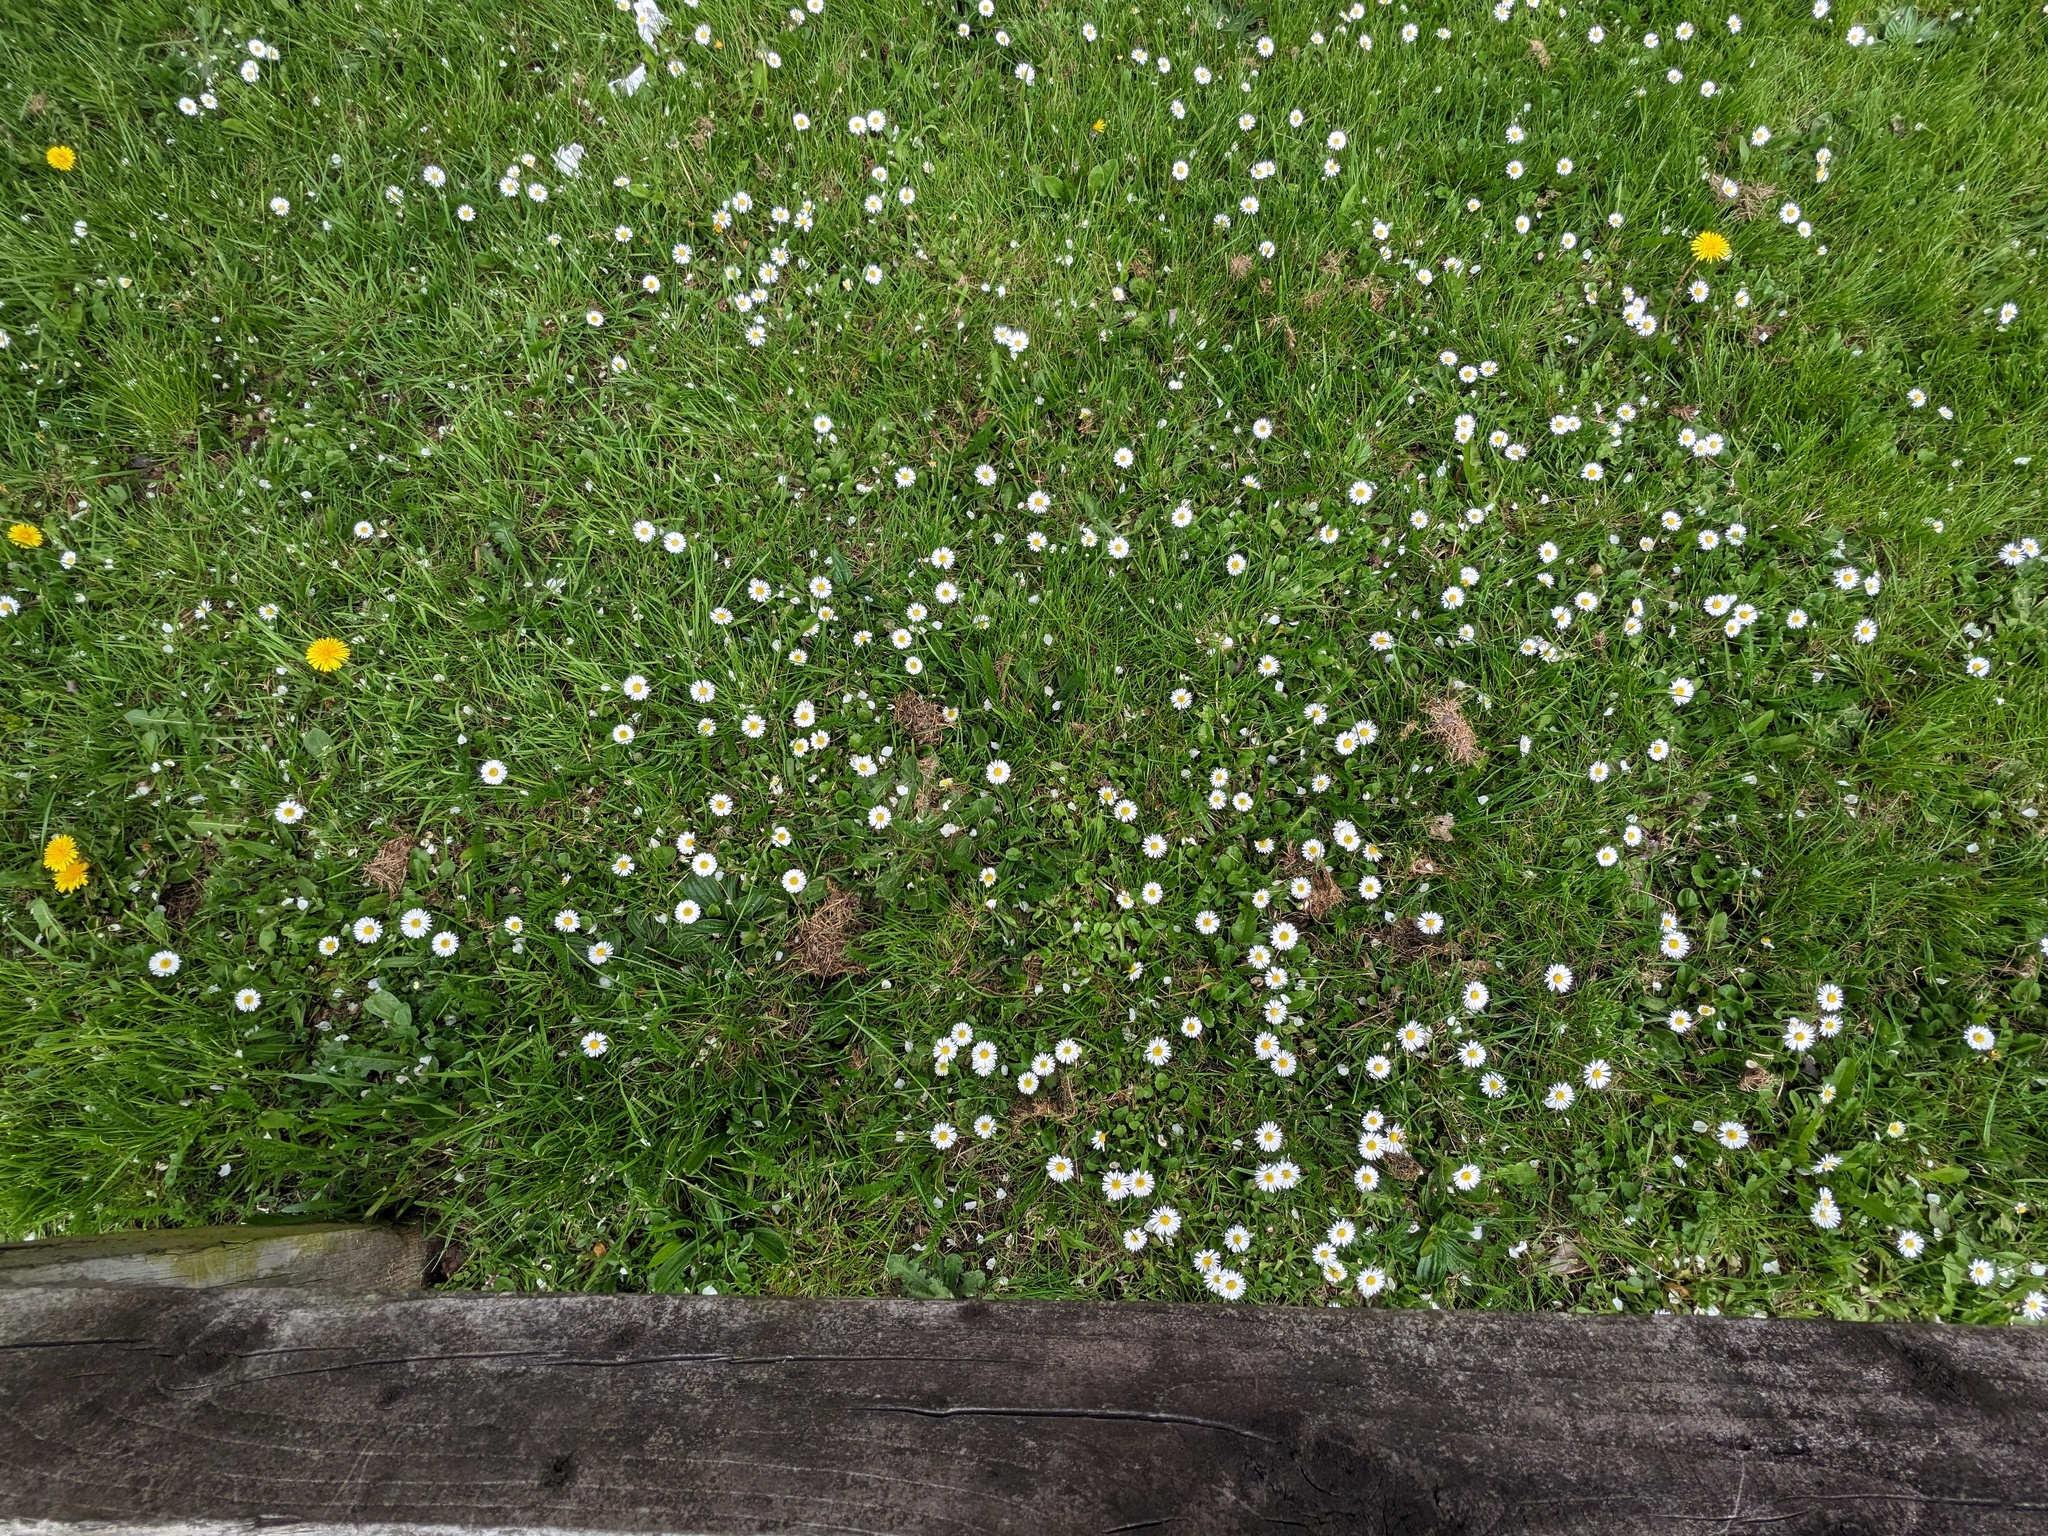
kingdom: Plantae
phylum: Tracheophyta
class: Magnoliopsida
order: Asterales
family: Asteraceae
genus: Bellis
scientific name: Bellis perennis
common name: Lawndaisy
